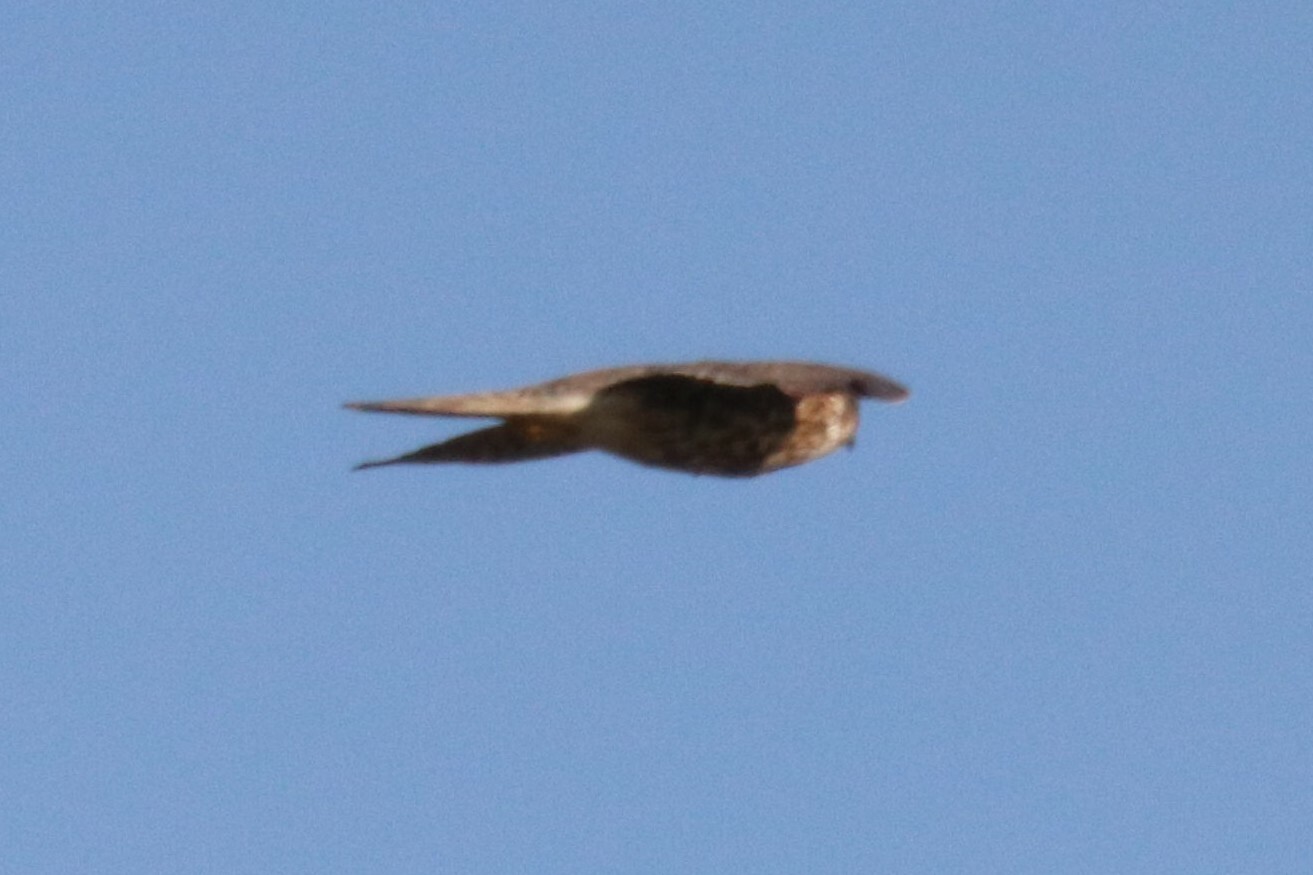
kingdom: Animalia
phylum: Chordata
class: Aves
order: Falconiformes
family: Falconidae
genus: Falco
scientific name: Falco columbarius
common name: Merlin
